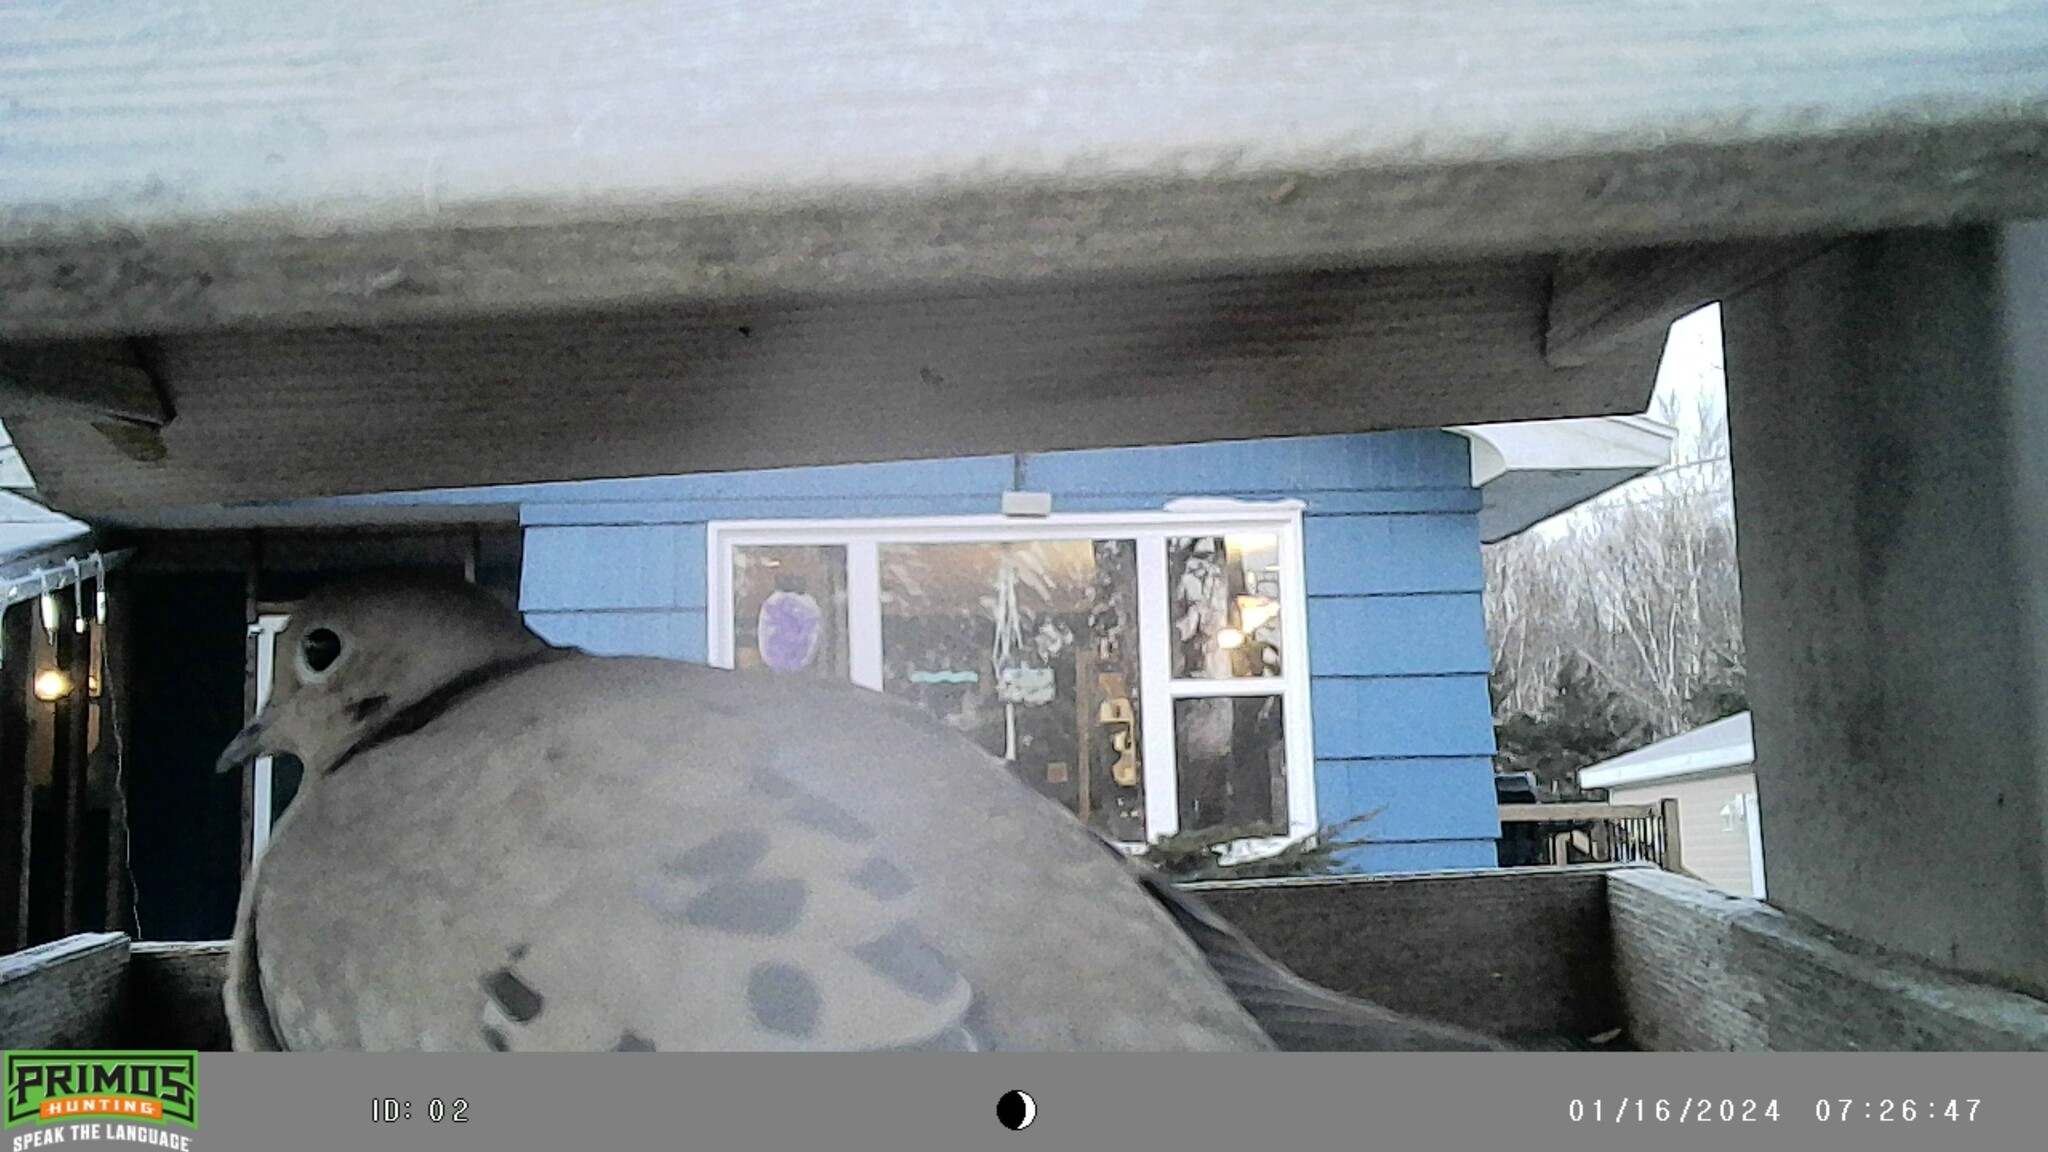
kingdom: Animalia
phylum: Chordata
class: Aves
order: Columbiformes
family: Columbidae
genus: Zenaida
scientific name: Zenaida macroura
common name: Mourning dove
